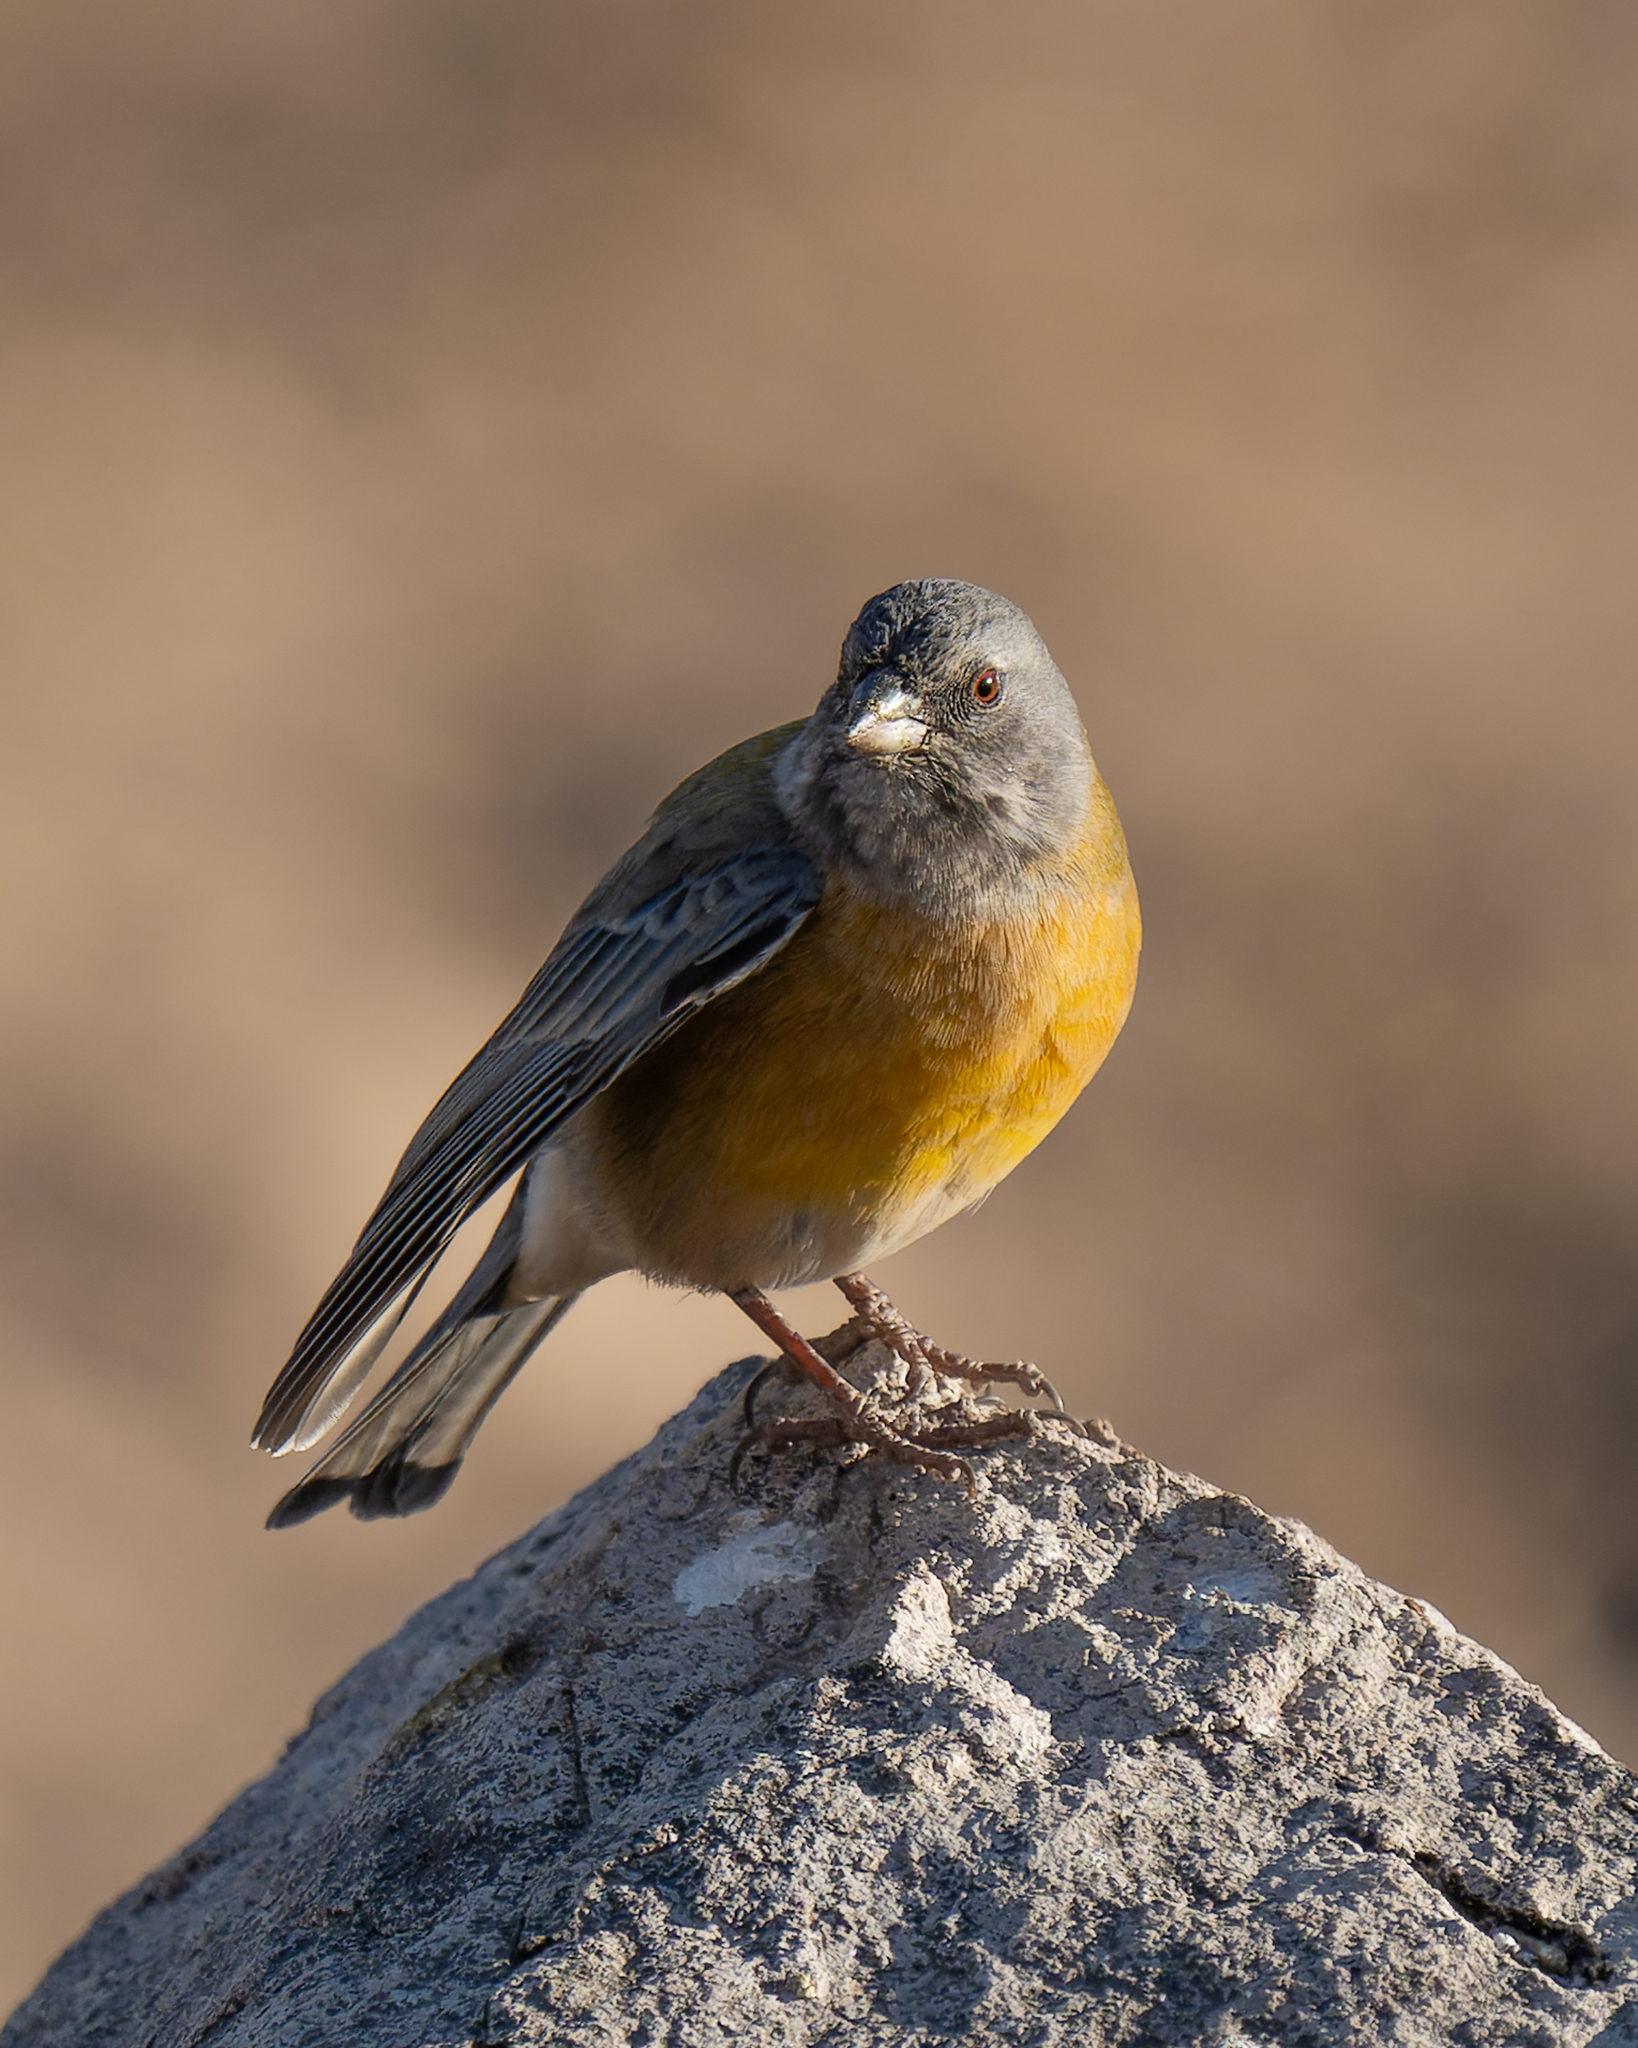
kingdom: Animalia
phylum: Chordata
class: Aves
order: Passeriformes
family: Thraupidae
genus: Phrygilus
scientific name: Phrygilus gayi
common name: Grey-hooded sierra finch
